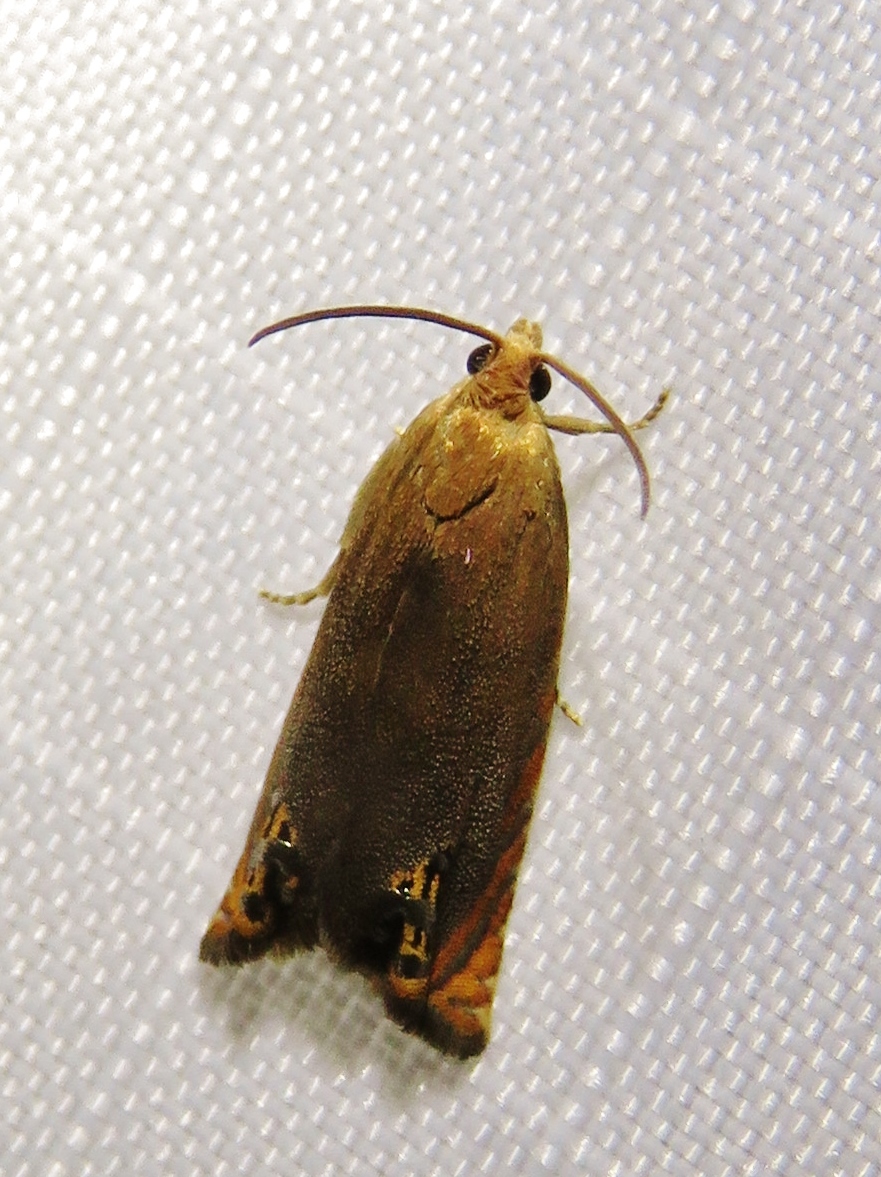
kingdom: Animalia
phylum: Arthropoda
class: Insecta
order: Lepidoptera
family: Tortricidae
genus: Hystrichophora
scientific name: Hystrichophora taleana
